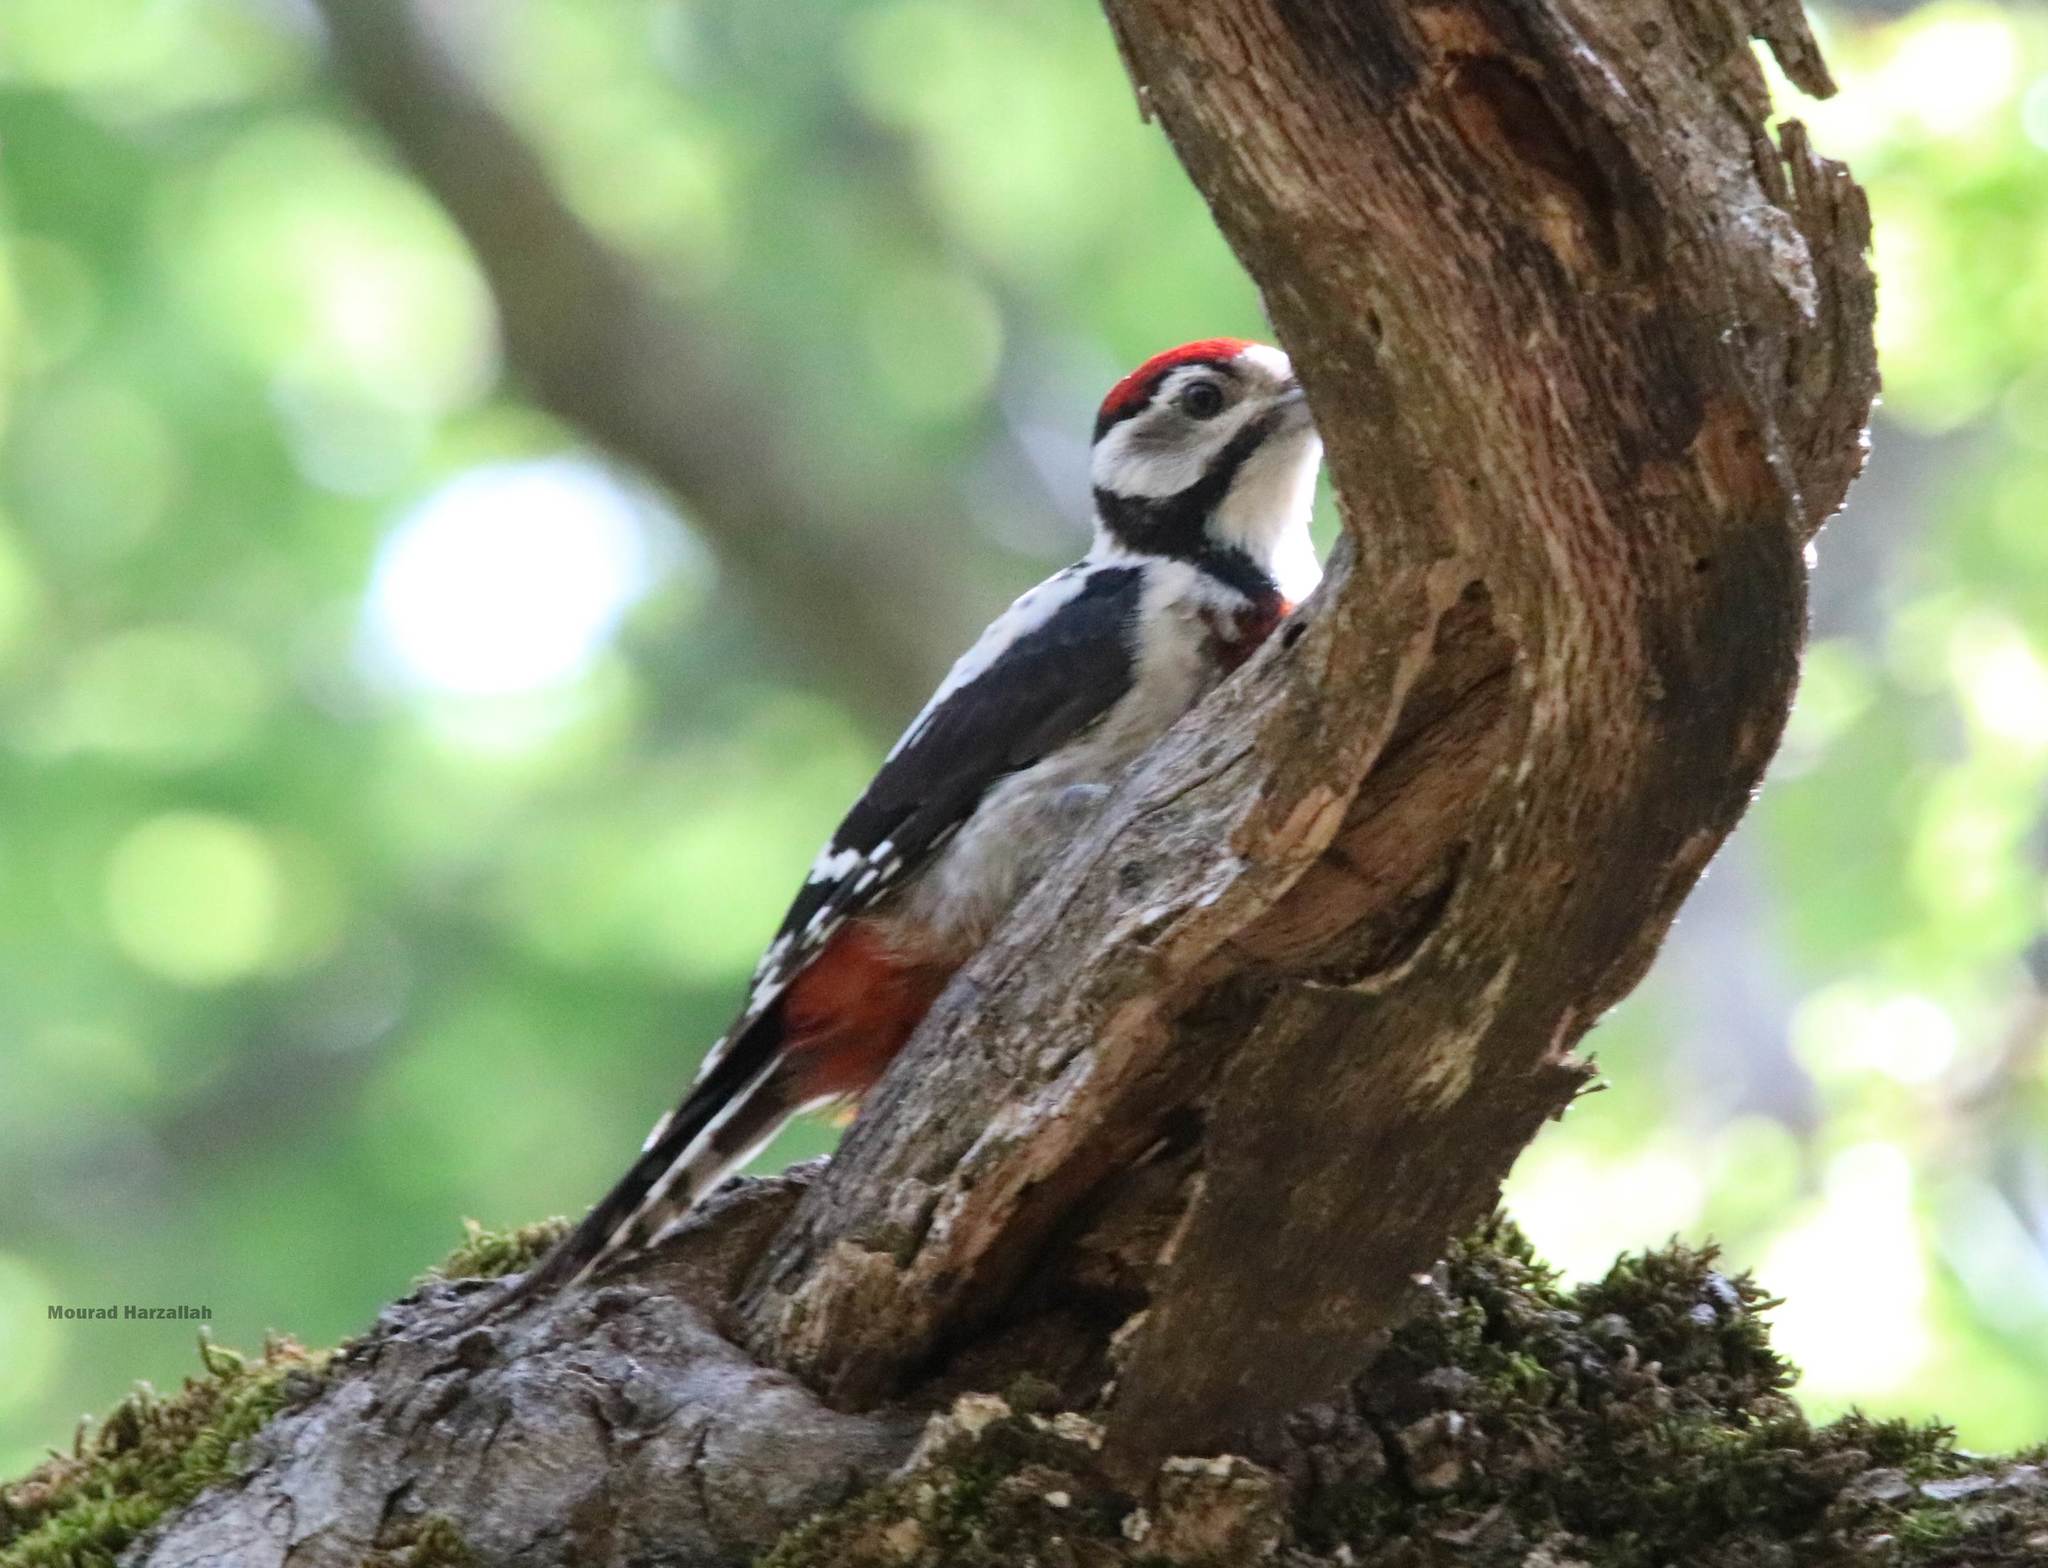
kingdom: Animalia
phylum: Chordata
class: Aves
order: Piciformes
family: Picidae
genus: Dendrocopos
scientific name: Dendrocopos major
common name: Great spotted woodpecker
